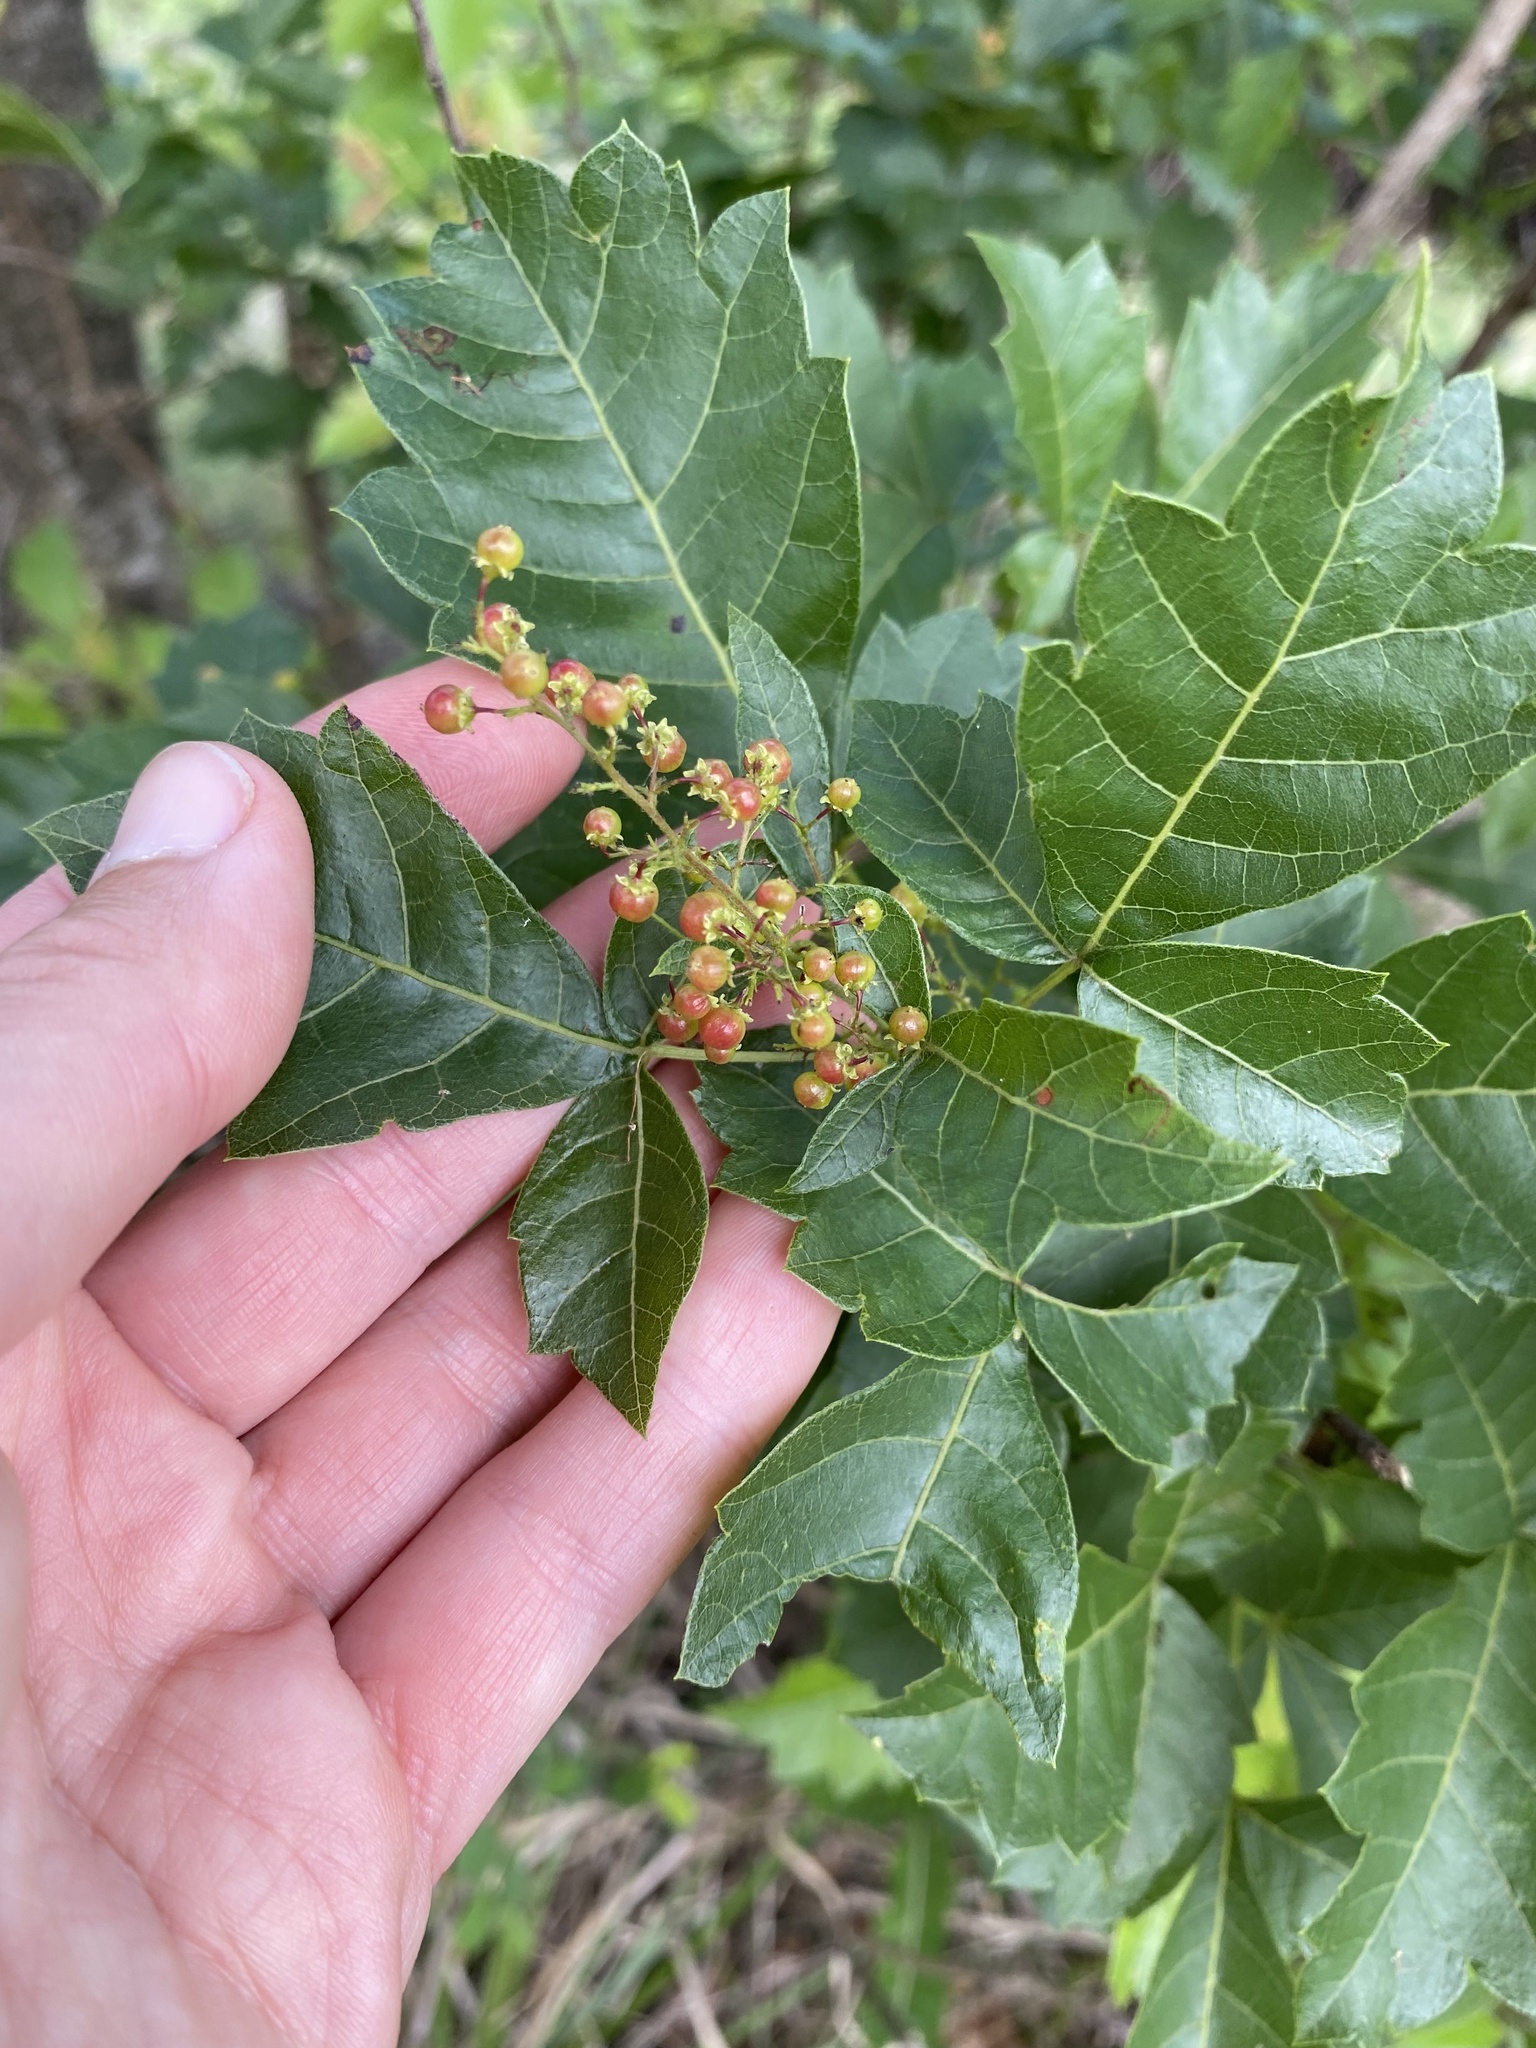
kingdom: Plantae
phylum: Tracheophyta
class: Magnoliopsida
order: Sapindales
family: Anacardiaceae
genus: Searsia
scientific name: Searsia dentata
